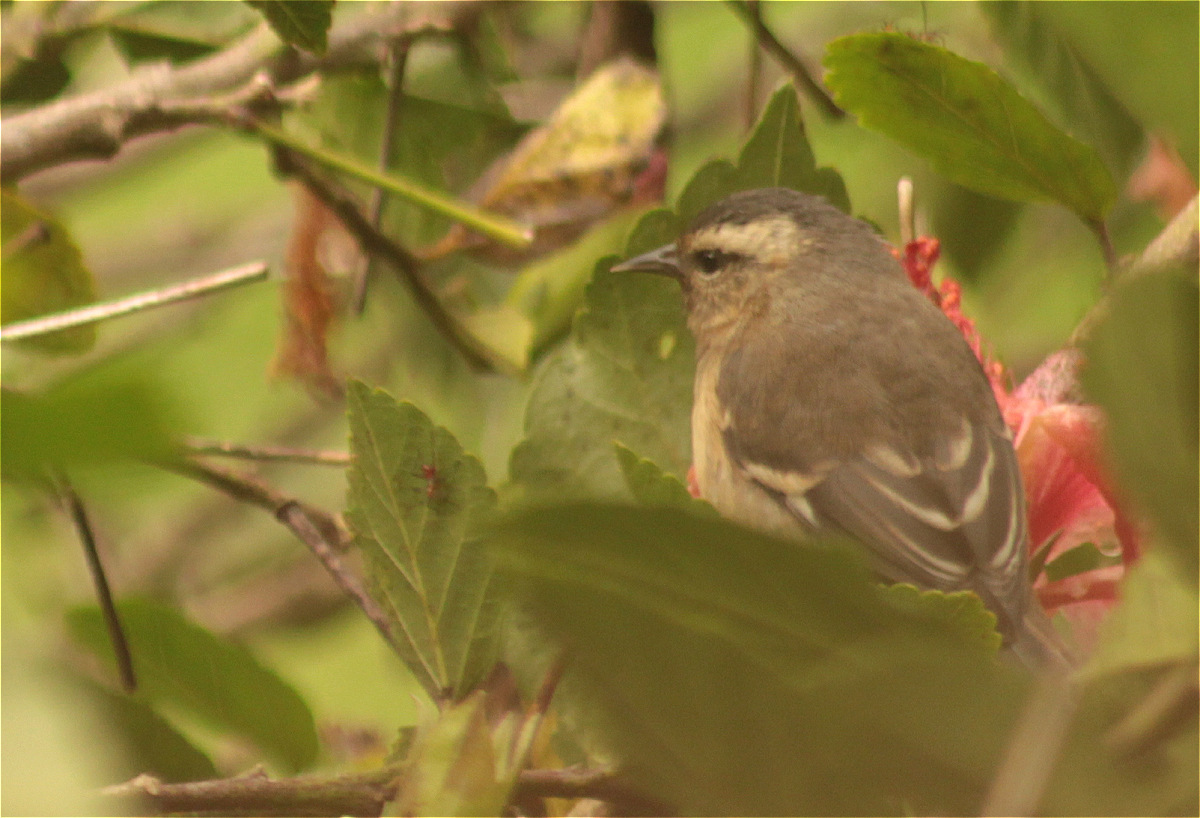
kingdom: Animalia
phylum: Chordata
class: Aves
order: Passeriformes
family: Thraupidae
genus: Conirostrum
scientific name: Conirostrum cinereum
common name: Cinereous conebill
